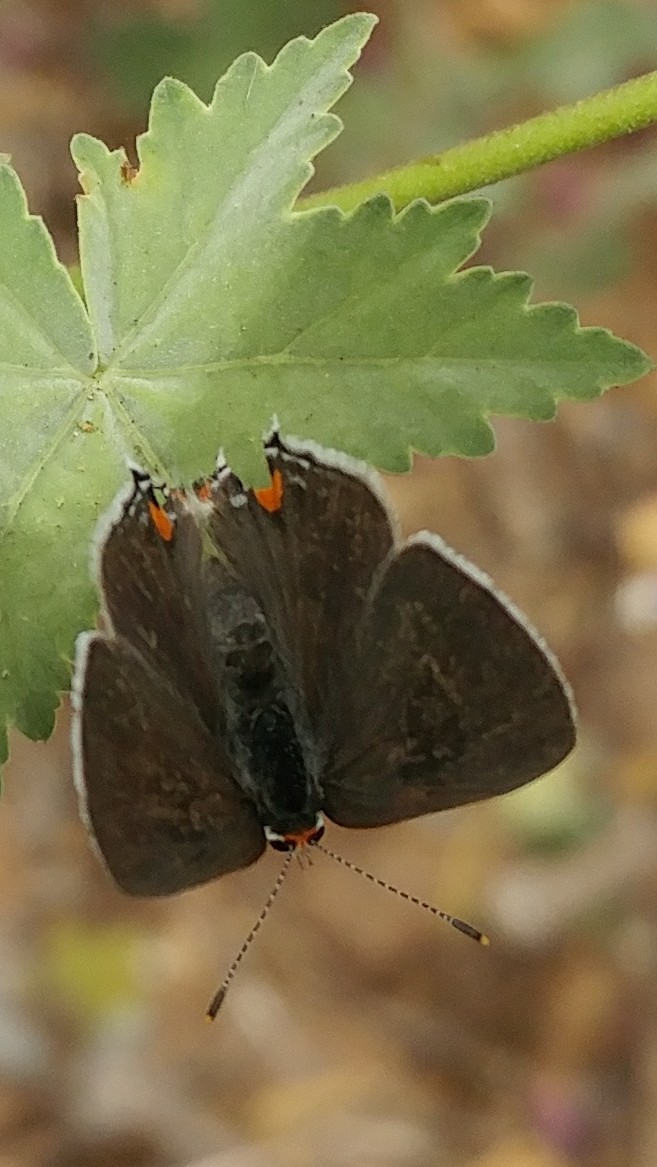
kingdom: Animalia
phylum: Arthropoda
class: Insecta
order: Lepidoptera
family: Lycaenidae
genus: Strymon
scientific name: Strymon melinus
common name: Gray hairstreak
